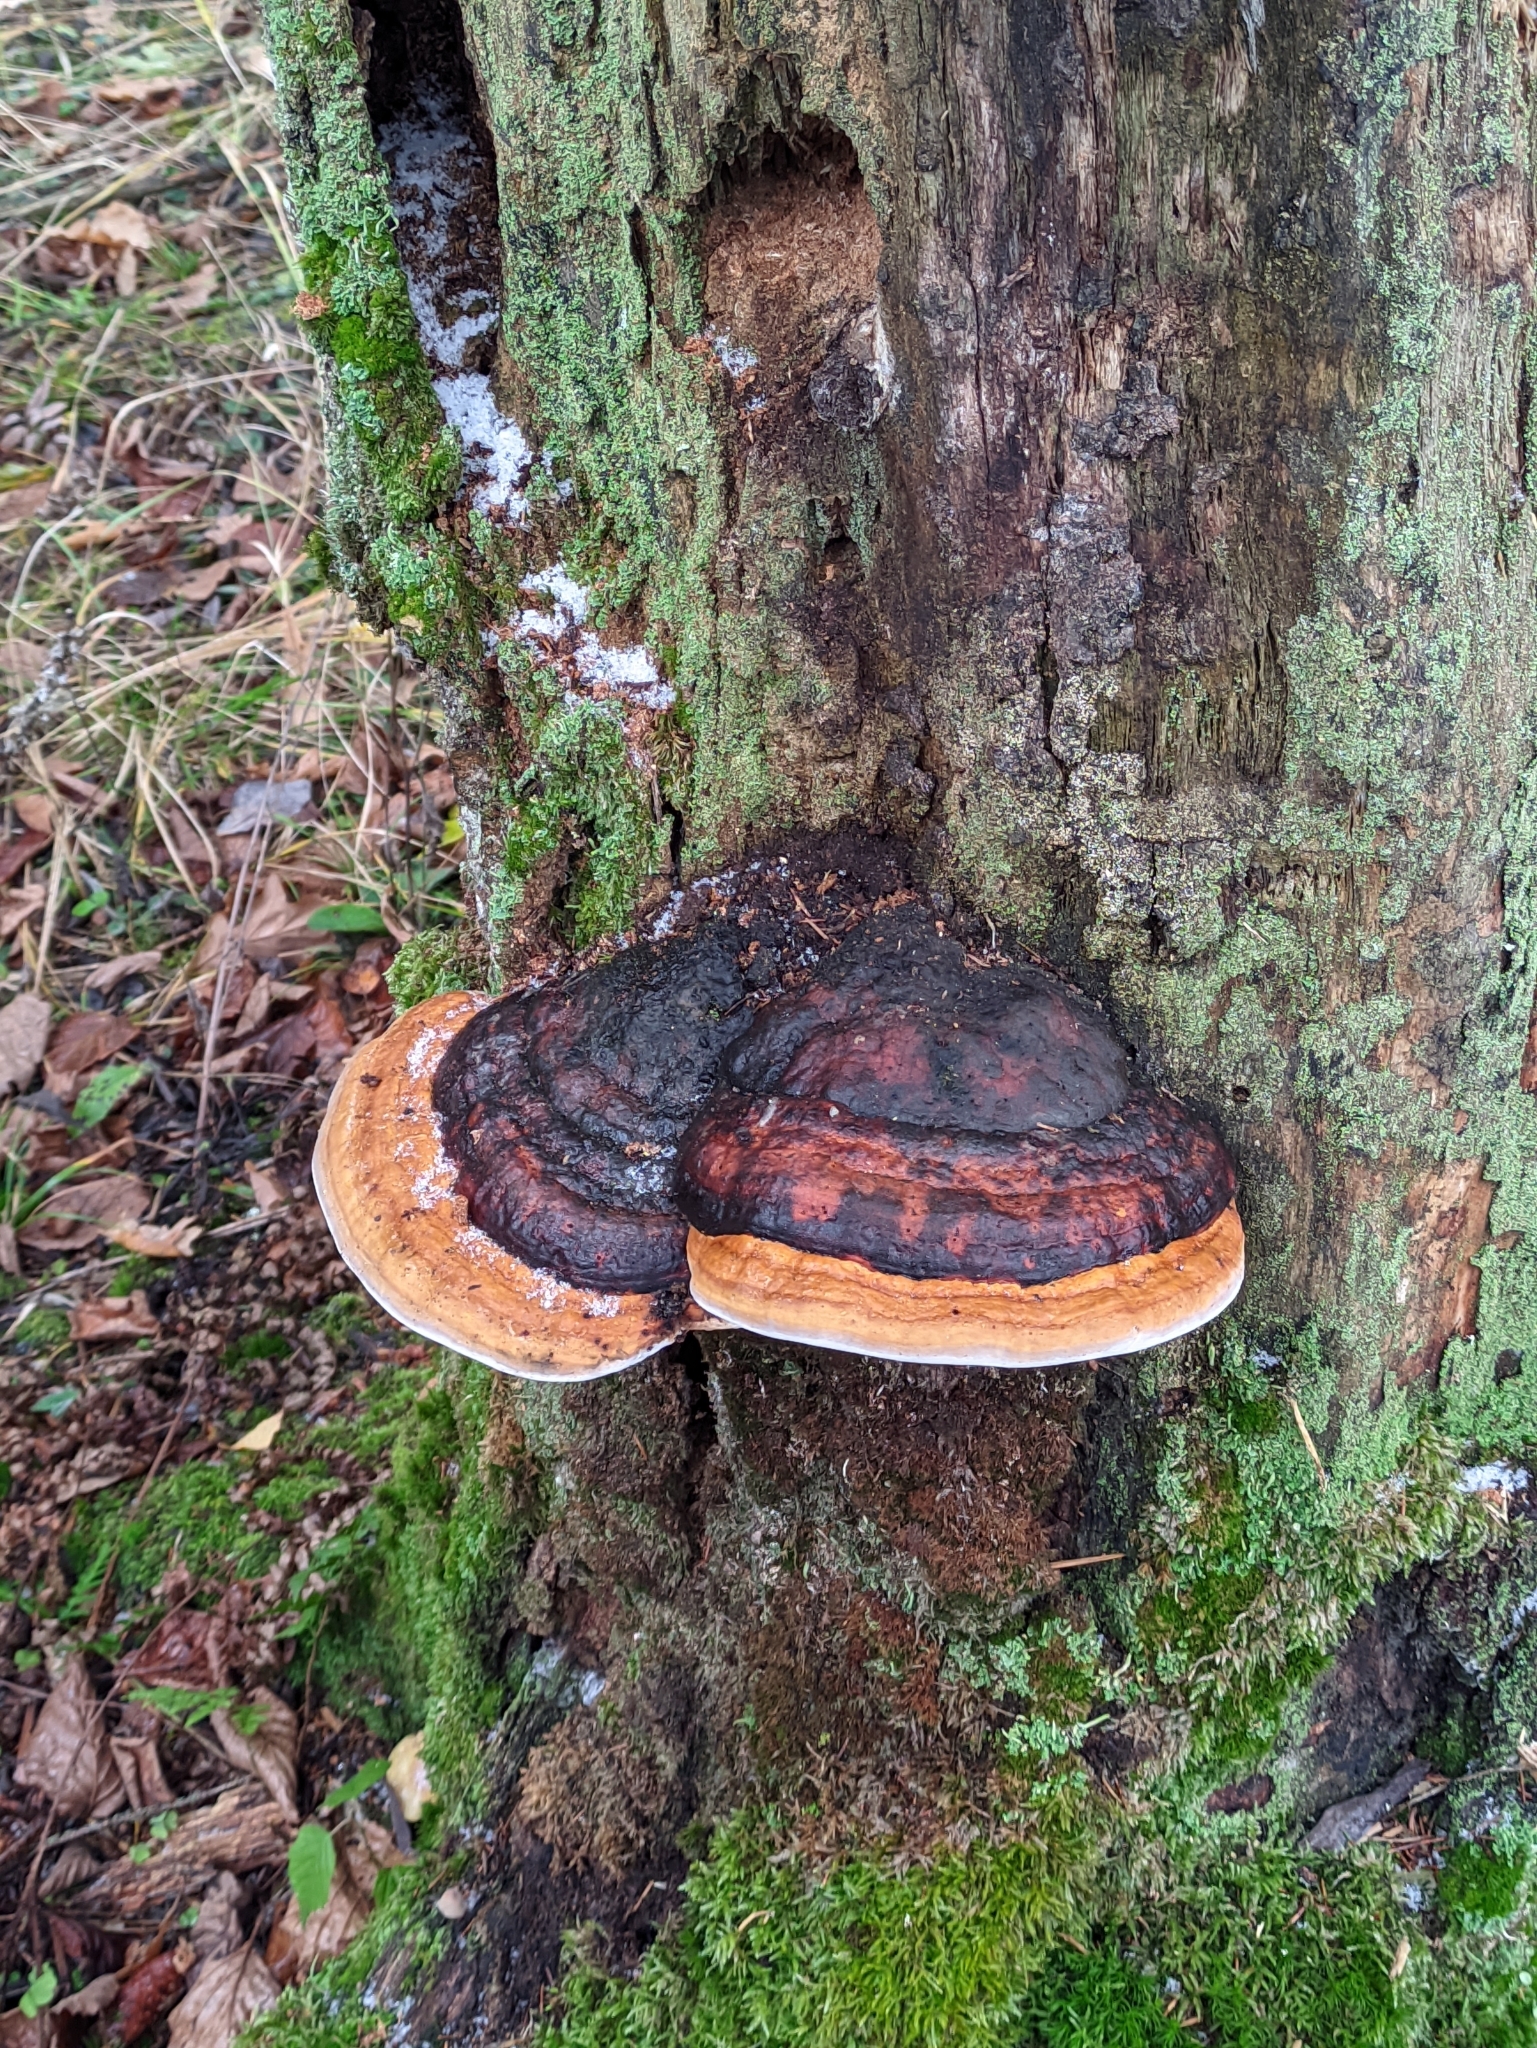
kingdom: Fungi
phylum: Basidiomycota
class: Agaricomycetes
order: Polyporales
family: Fomitopsidaceae
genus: Fomitopsis
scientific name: Fomitopsis pinicola
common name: Red-belted bracket
